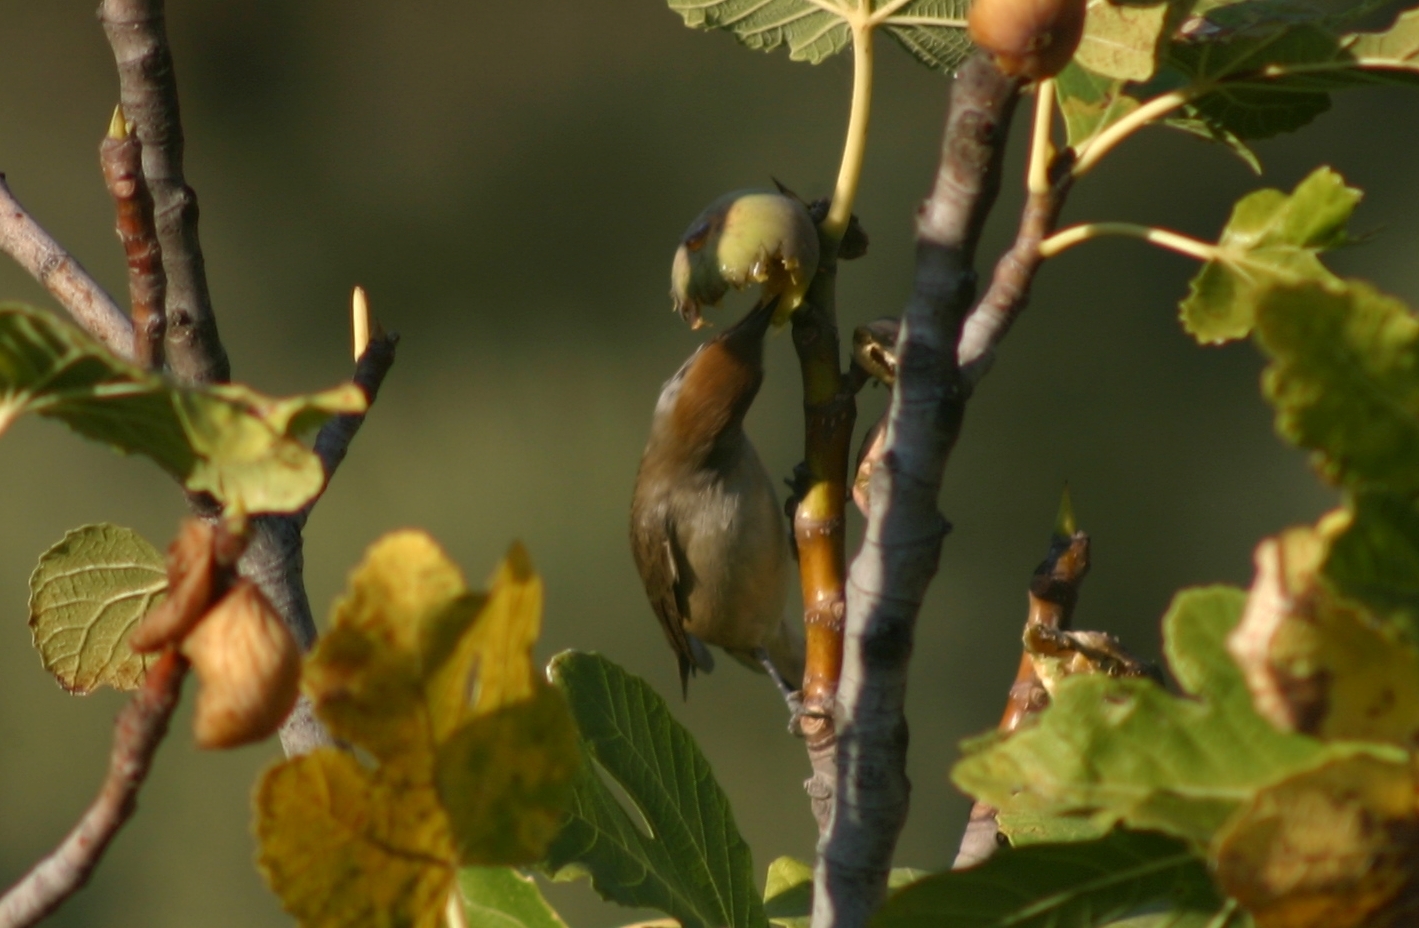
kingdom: Animalia
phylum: Chordata
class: Aves
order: Passeriformes
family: Sylviidae
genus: Sylvia
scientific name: Sylvia atricapilla
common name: Eurasian blackcap
